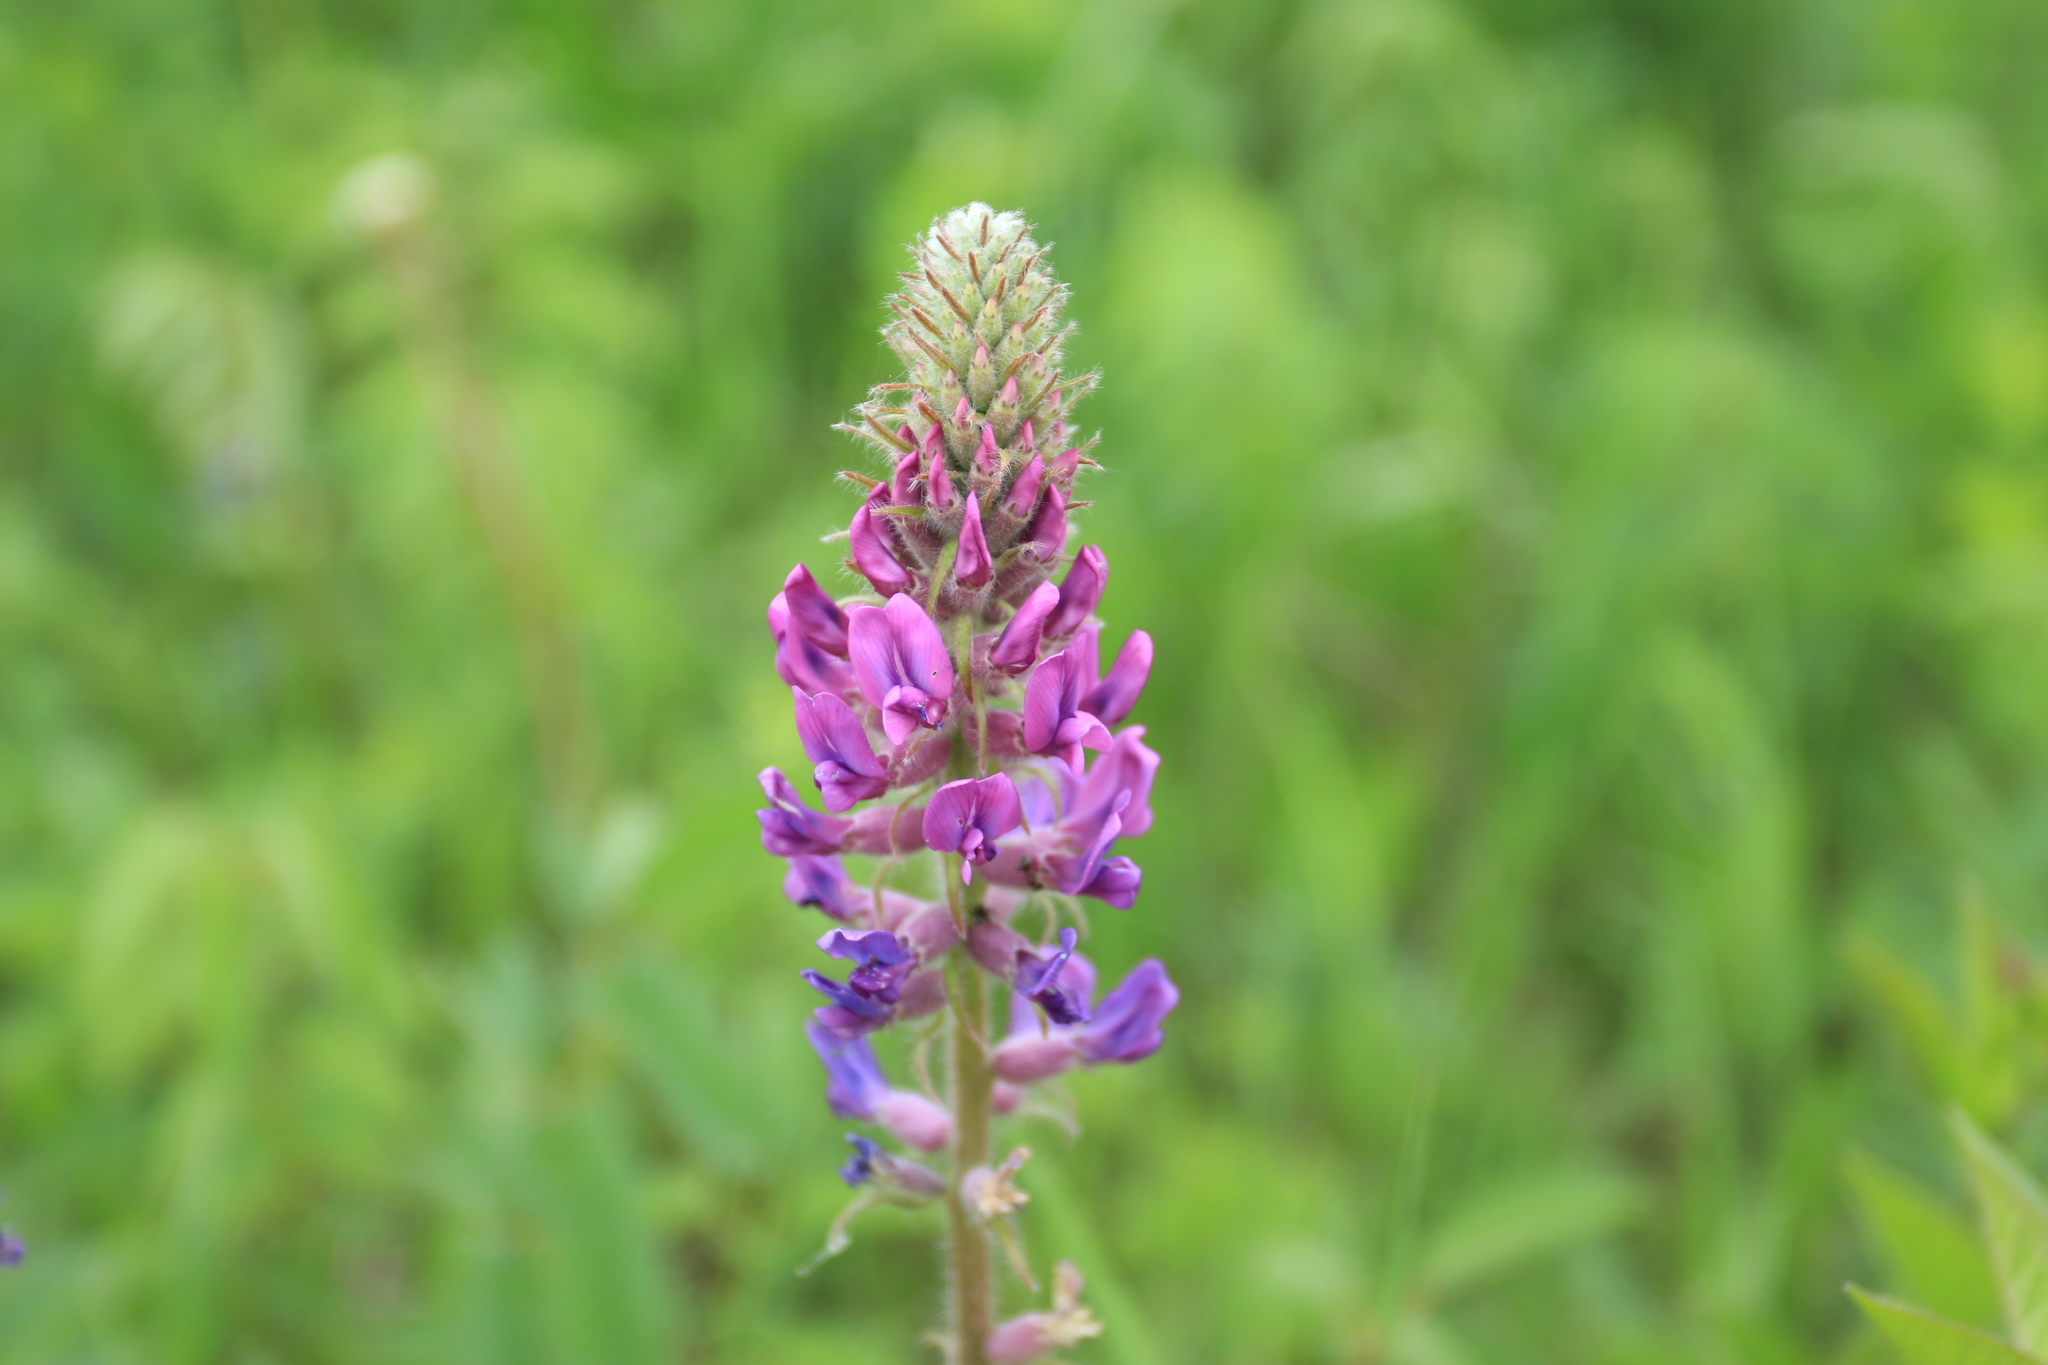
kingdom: Plantae
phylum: Tracheophyta
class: Magnoliopsida
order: Fabales
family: Fabaceae
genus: Oxytropis
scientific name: Oxytropis campanulata
